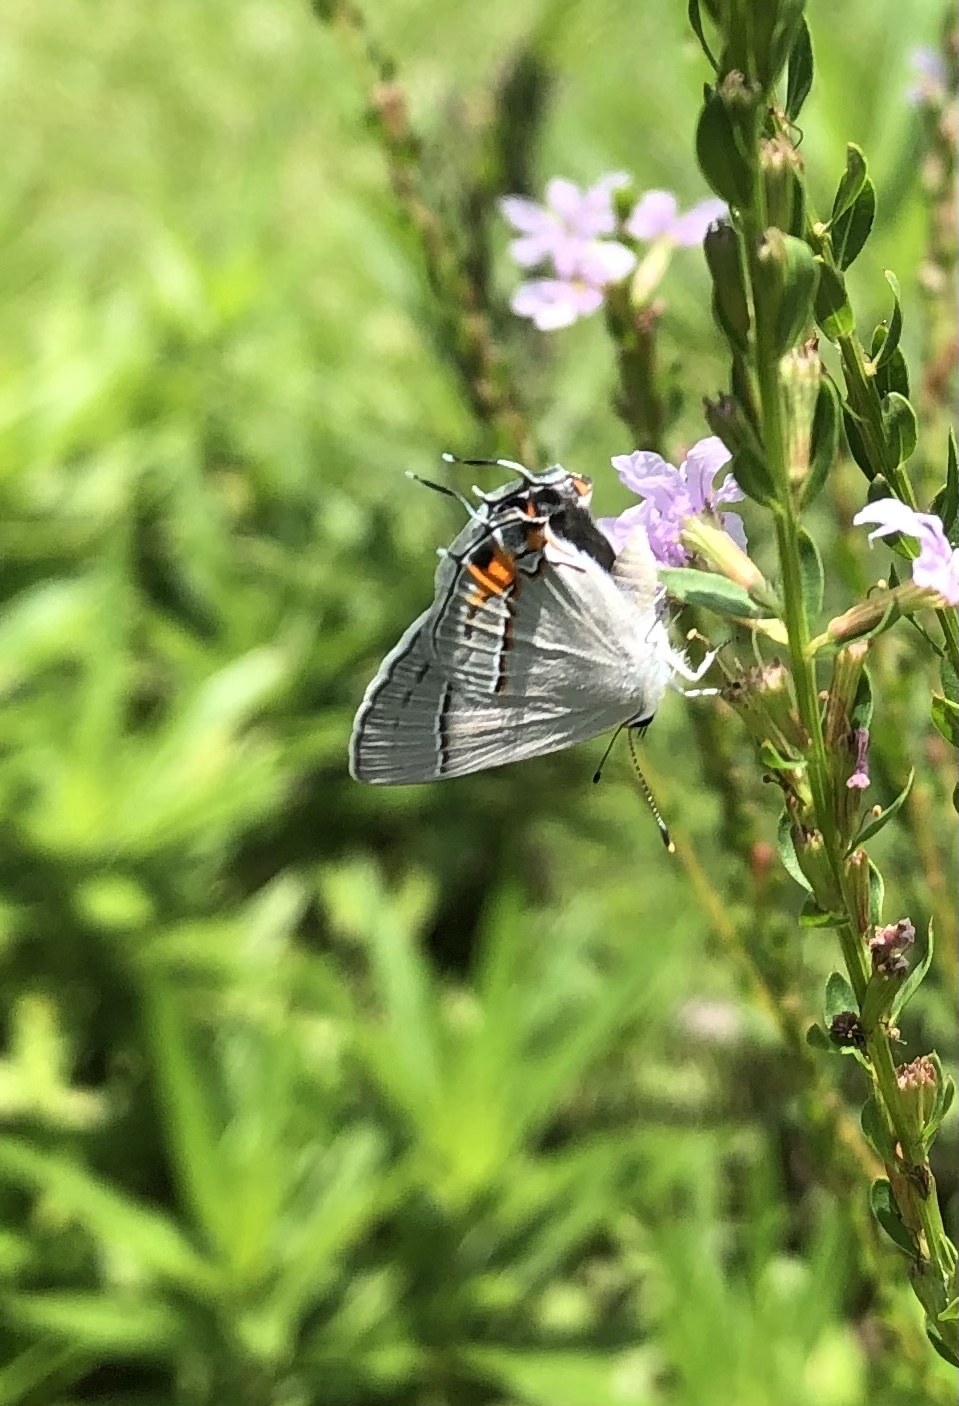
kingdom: Animalia
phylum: Arthropoda
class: Insecta
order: Lepidoptera
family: Lycaenidae
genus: Strymon
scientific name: Strymon melinus
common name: Gray hairstreak
